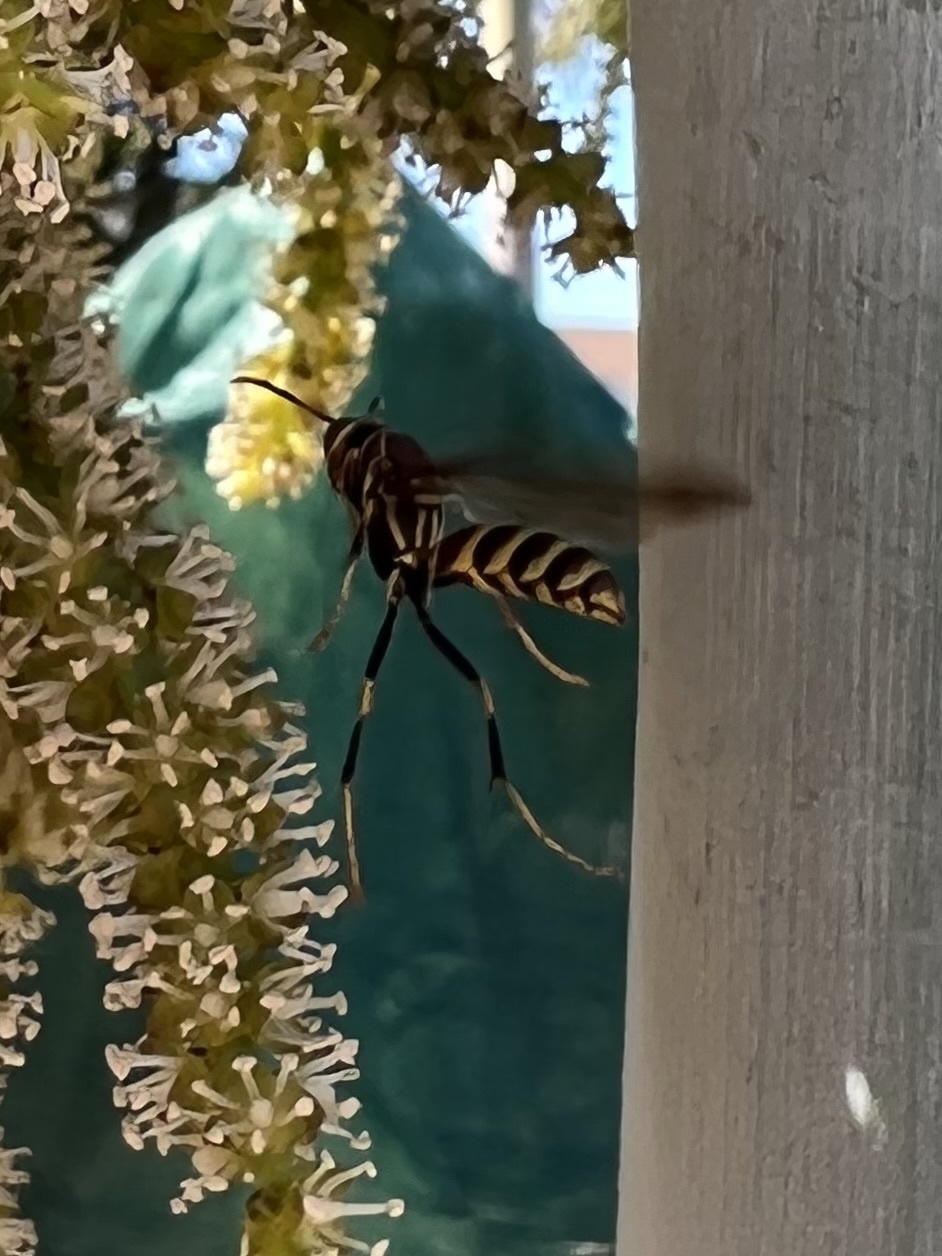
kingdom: Animalia
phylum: Arthropoda
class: Insecta
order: Hymenoptera
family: Eumenidae
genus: Polistes
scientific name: Polistes exclamans
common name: Paper wasp
